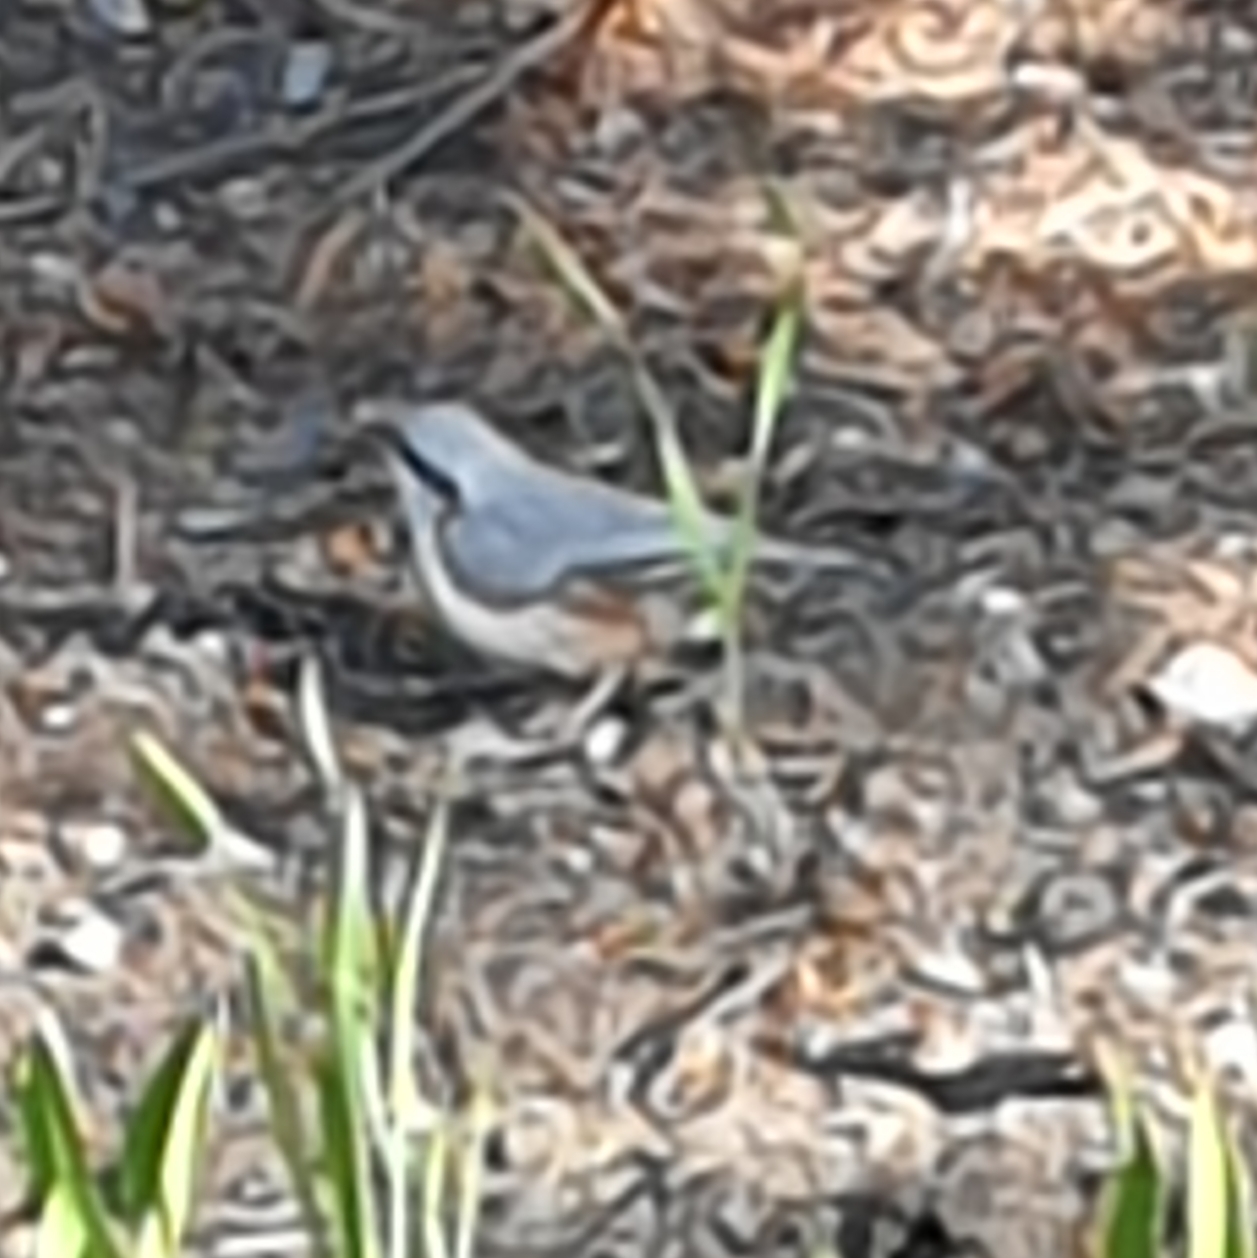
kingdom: Animalia
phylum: Chordata
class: Aves
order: Passeriformes
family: Sittidae
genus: Sitta
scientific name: Sitta europaea
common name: Eurasian nuthatch
